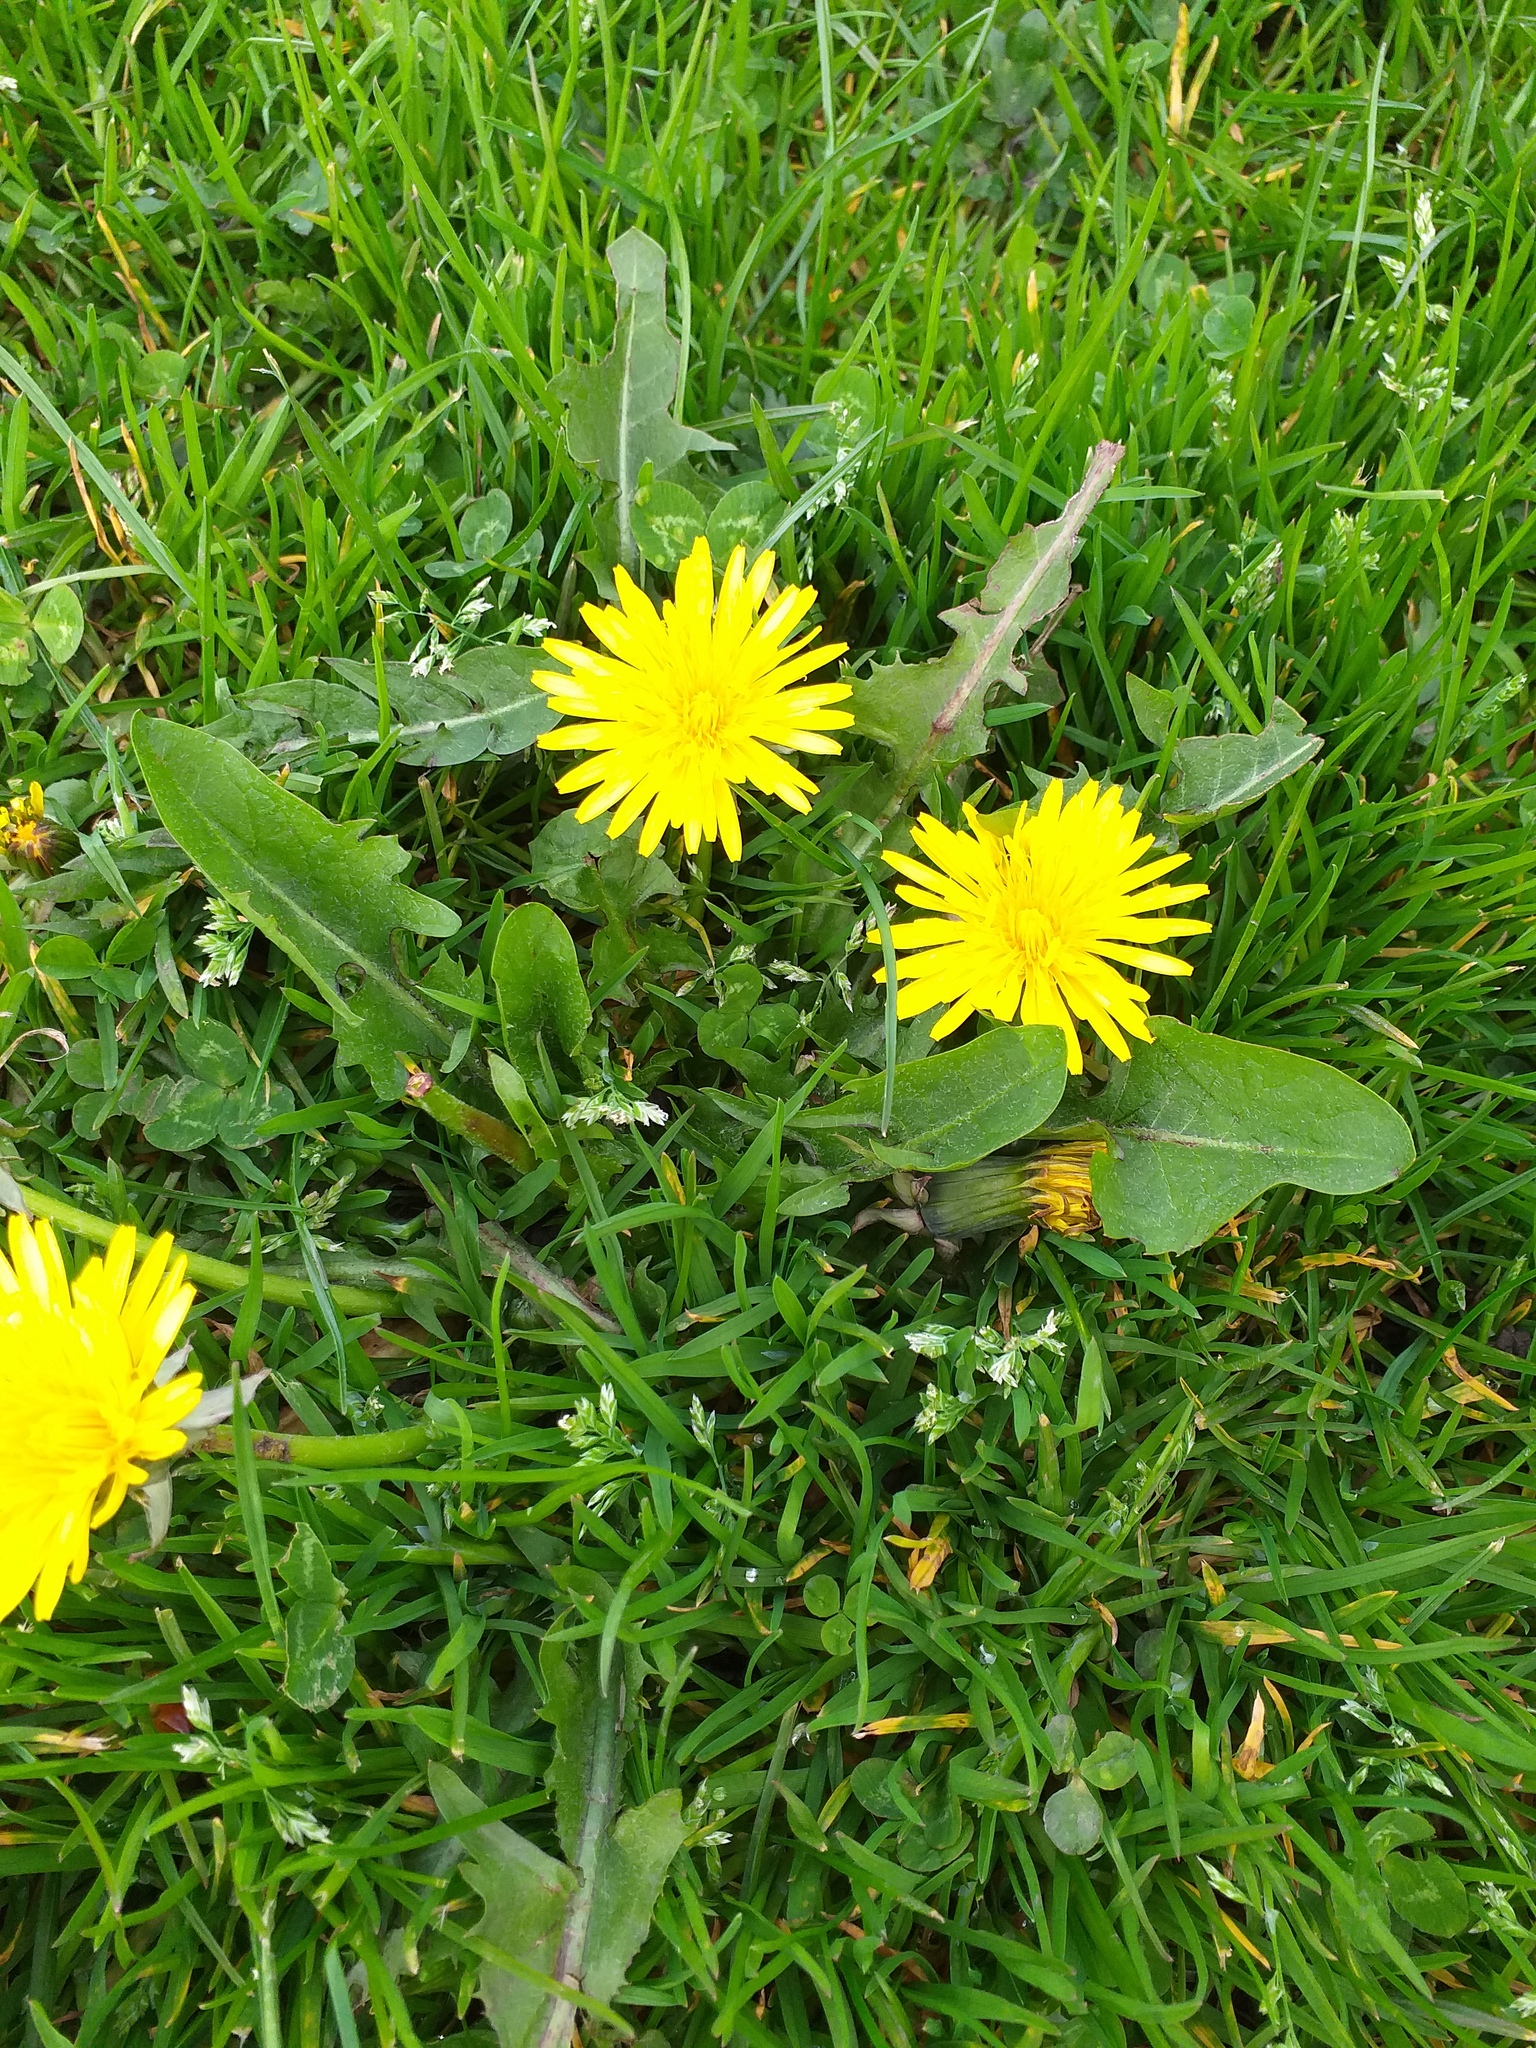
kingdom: Plantae
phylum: Tracheophyta
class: Magnoliopsida
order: Asterales
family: Asteraceae
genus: Taraxacum
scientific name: Taraxacum officinale
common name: Common dandelion
